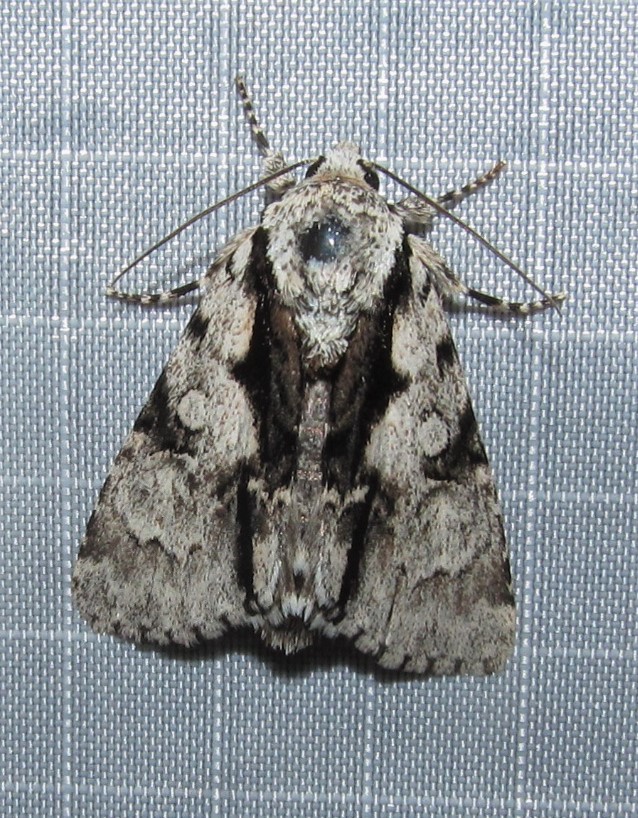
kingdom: Animalia
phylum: Arthropoda
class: Insecta
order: Lepidoptera
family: Noctuidae
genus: Acronicta
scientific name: Acronicta funeralis
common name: Funerary dagger
